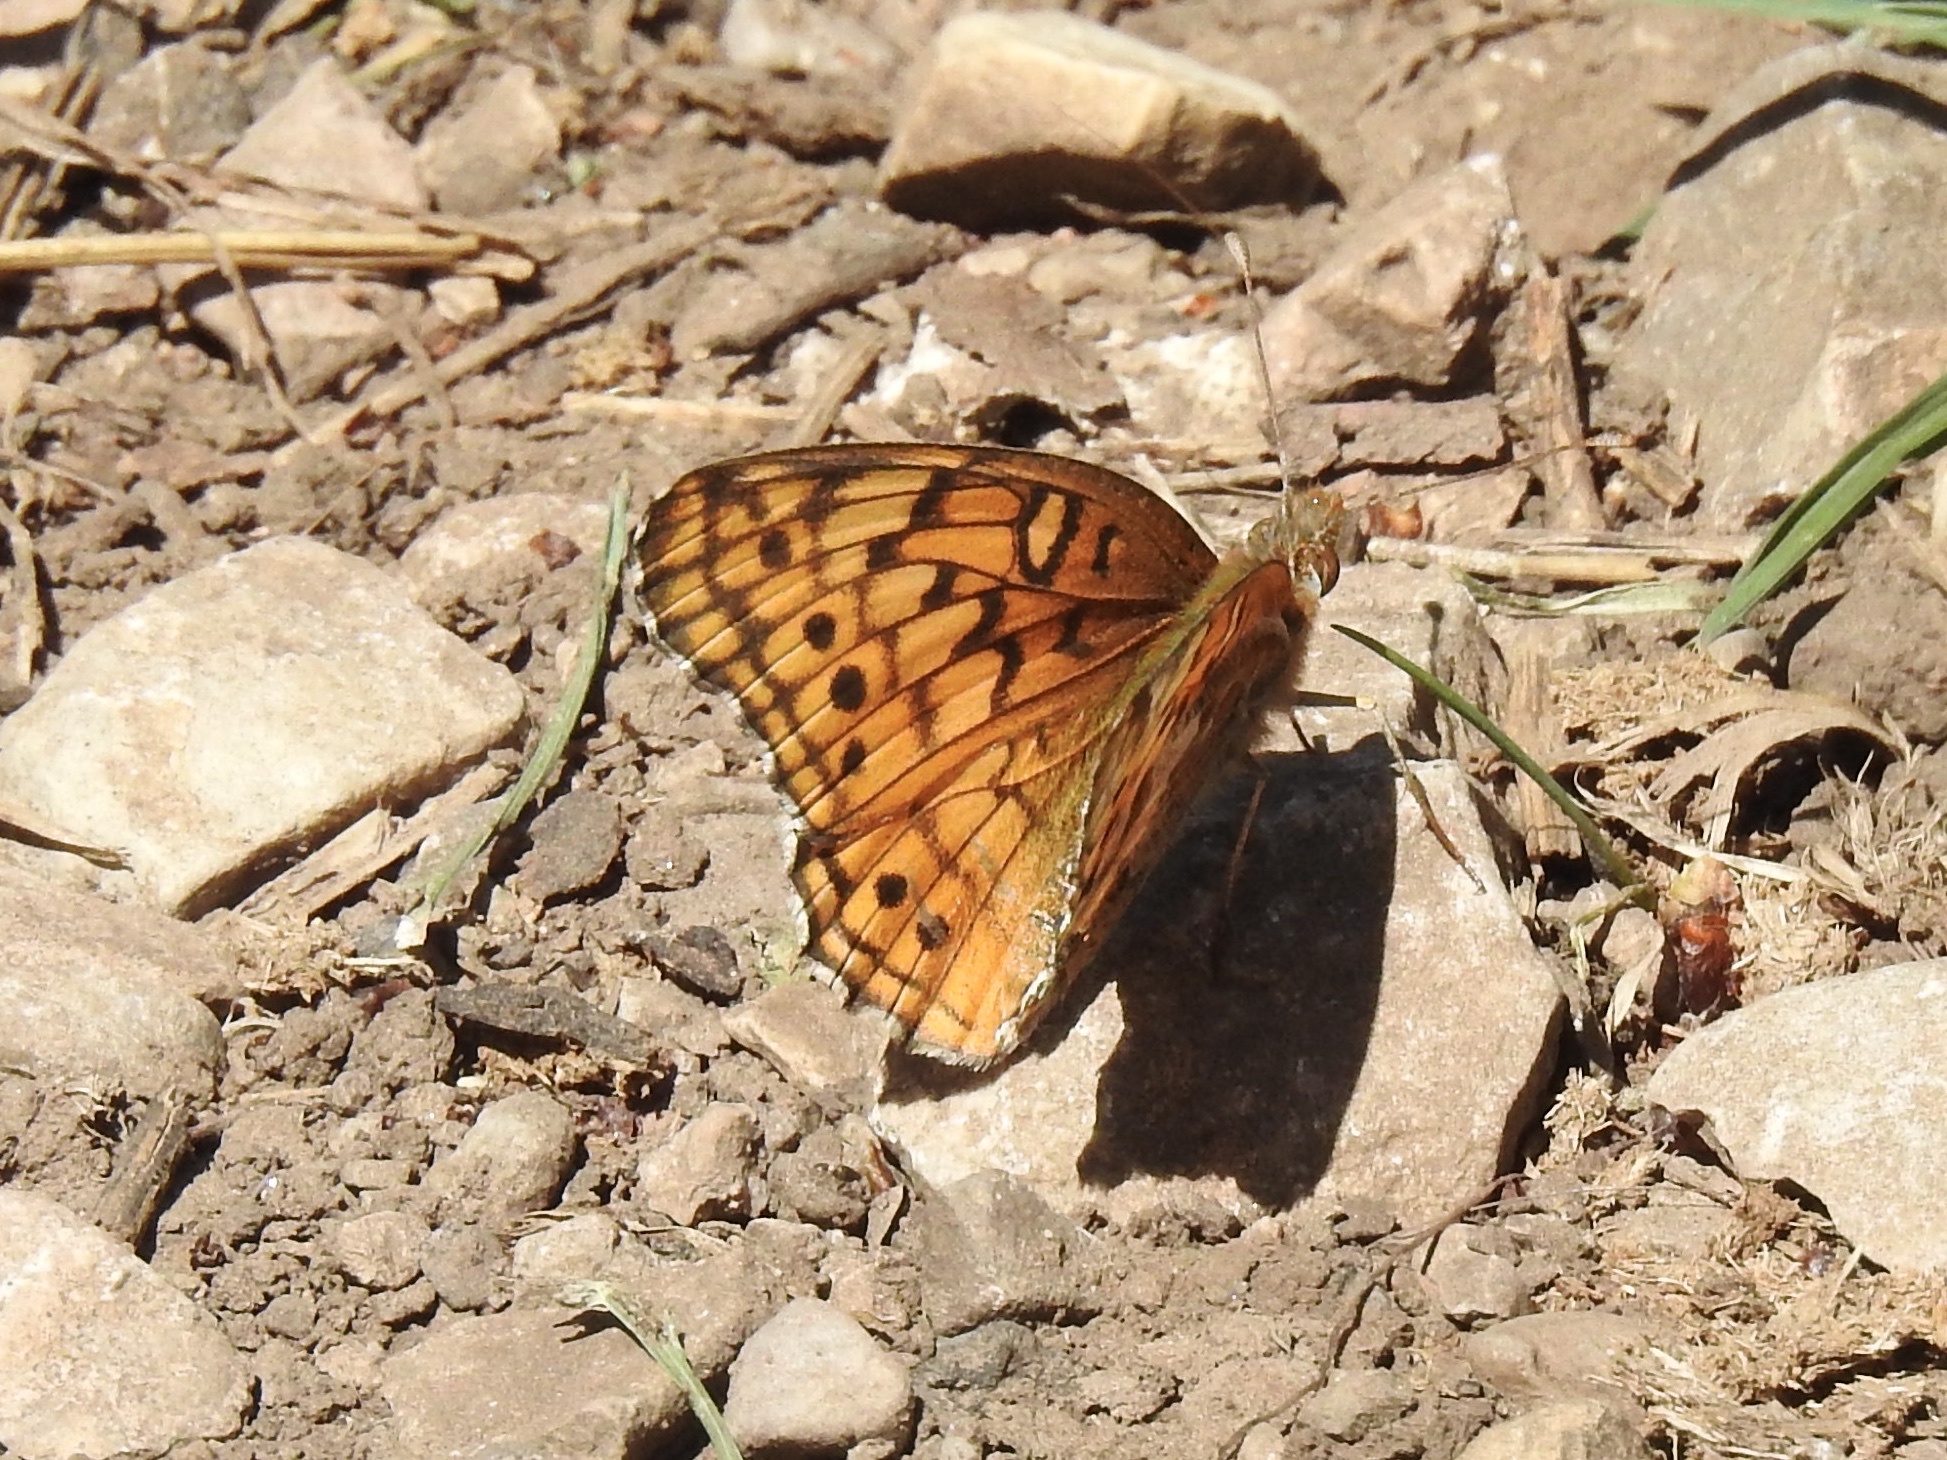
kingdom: Animalia
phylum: Arthropoda
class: Insecta
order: Lepidoptera
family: Nymphalidae
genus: Euptoieta
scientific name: Euptoieta claudia
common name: Variegated fritillary
